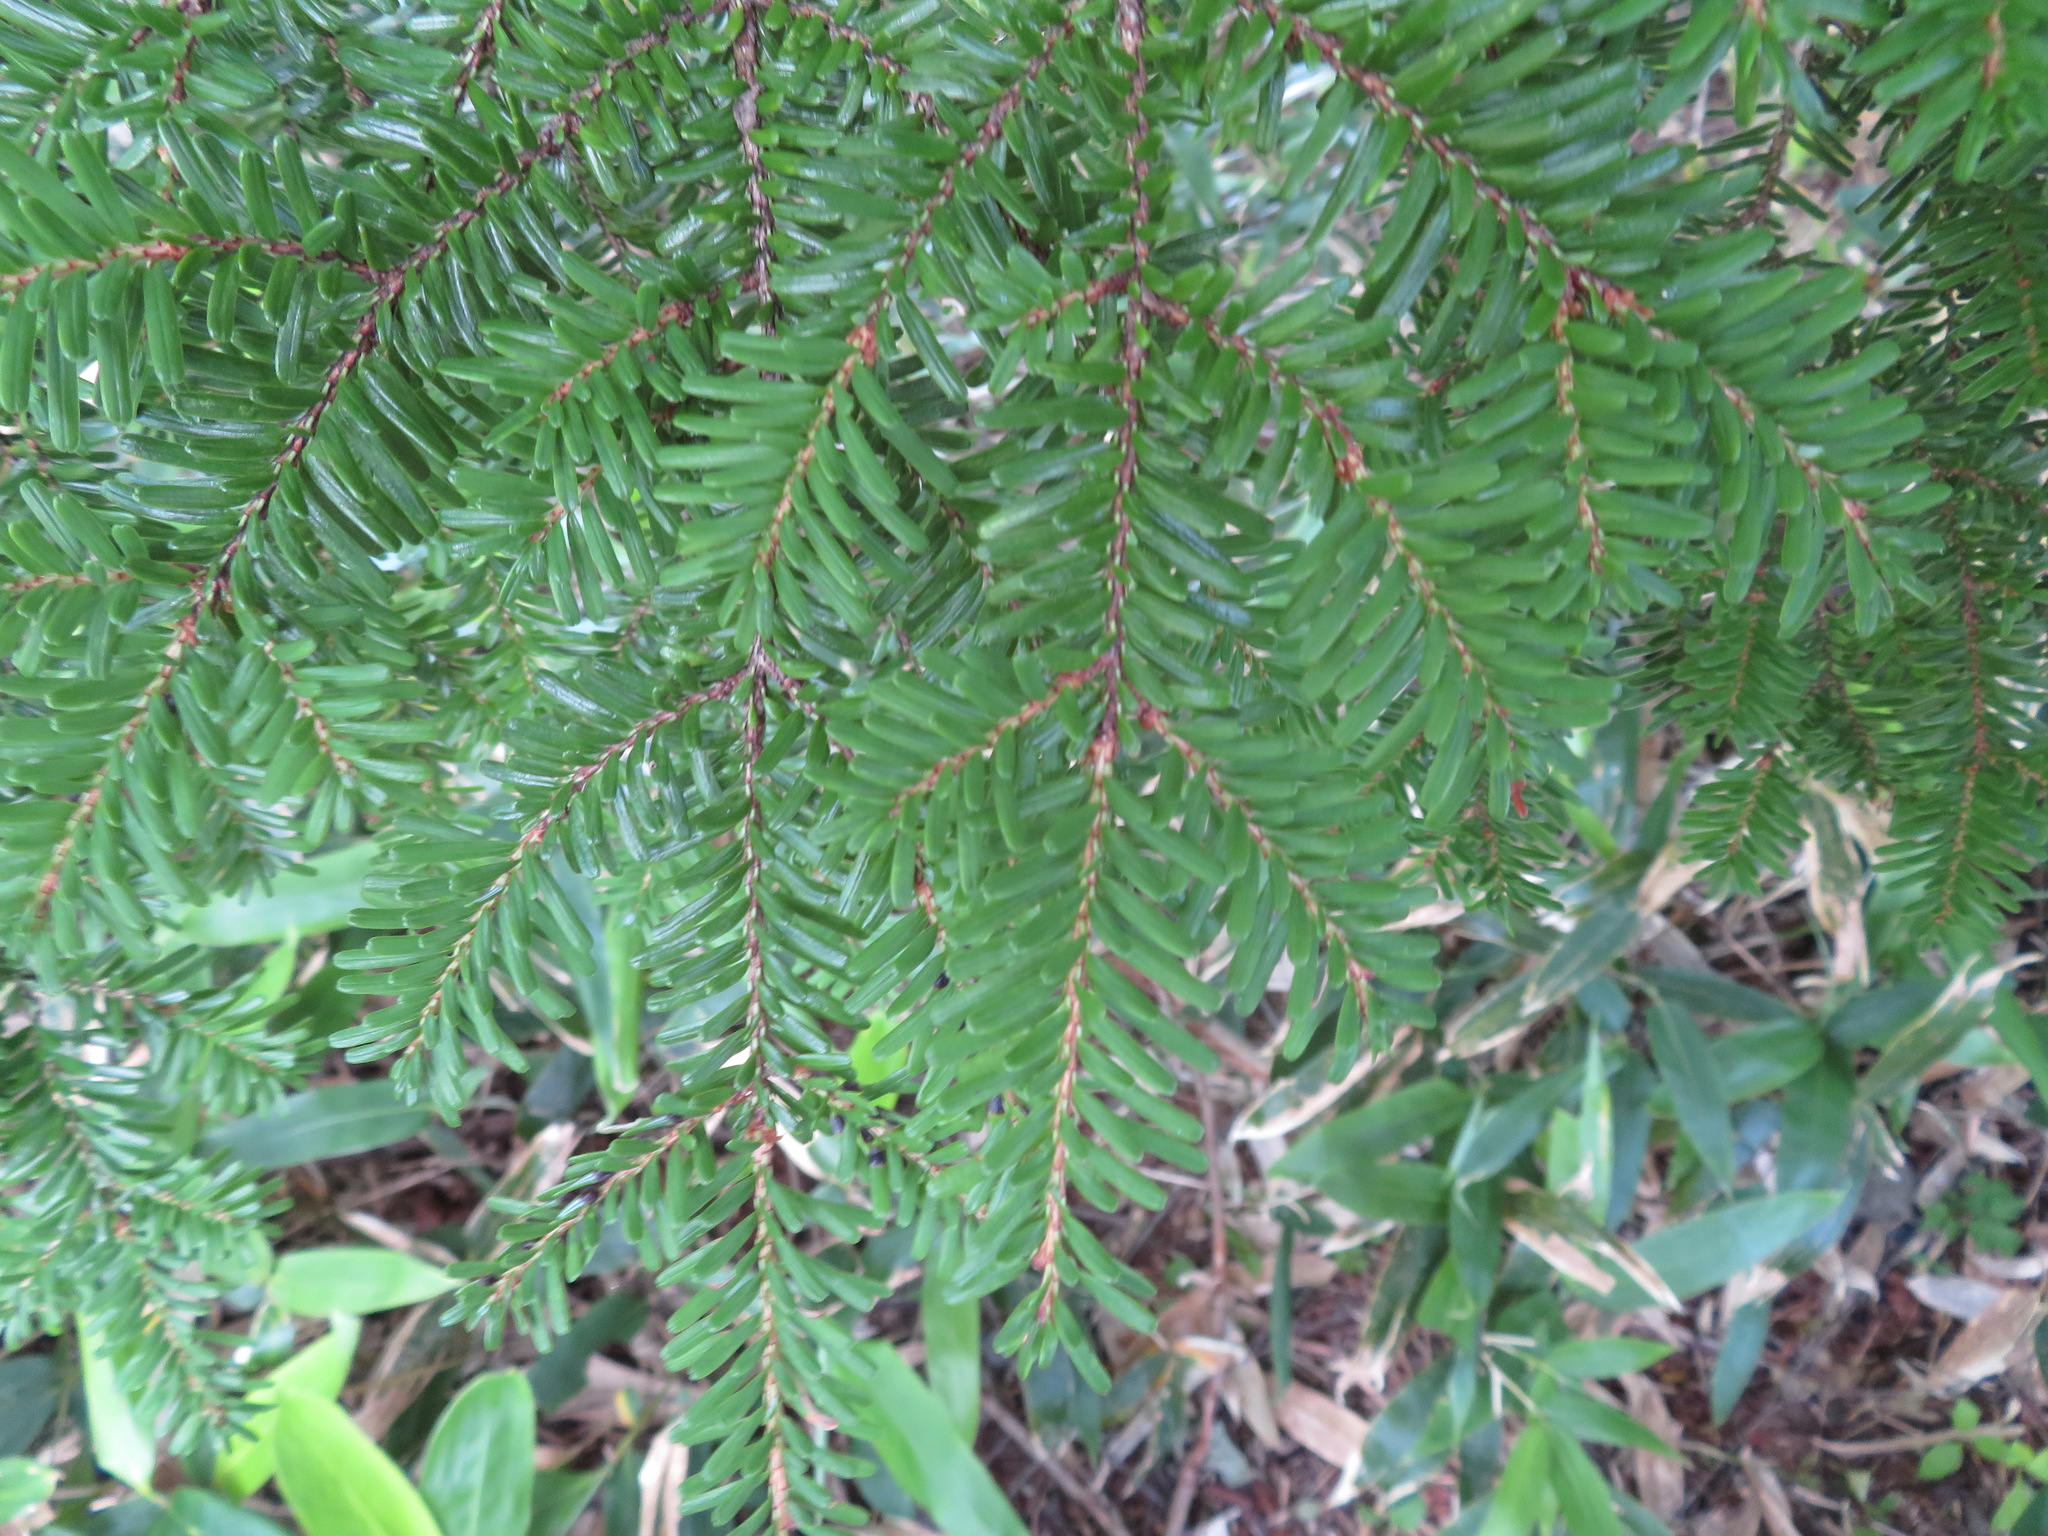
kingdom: Plantae
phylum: Tracheophyta
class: Pinopsida
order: Pinales
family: Pinaceae
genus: Tsuga
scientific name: Tsuga diversifolia
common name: Northern japanese hemlock
